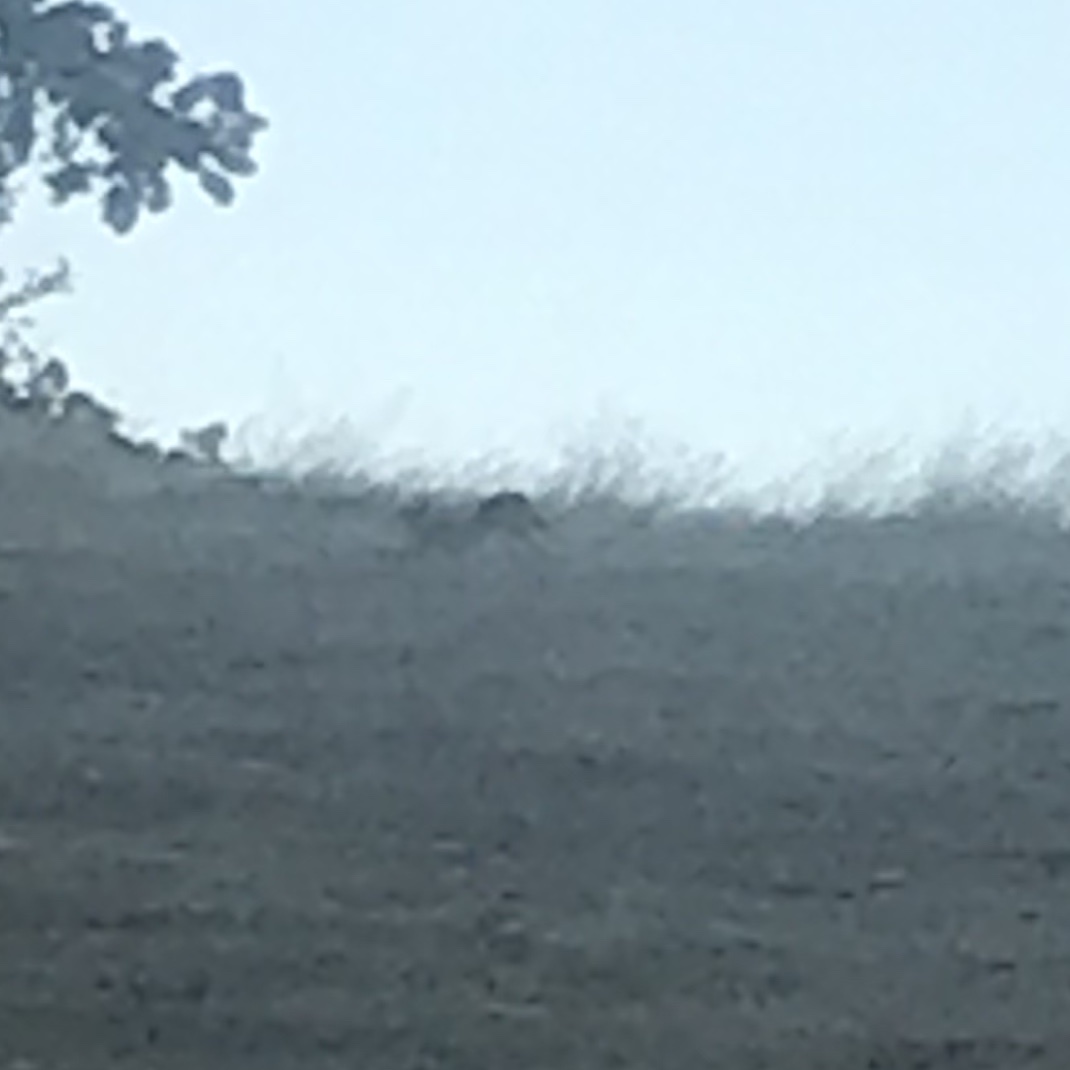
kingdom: Animalia
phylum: Chordata
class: Mammalia
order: Carnivora
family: Canidae
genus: Canis
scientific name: Canis latrans
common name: Coyote
